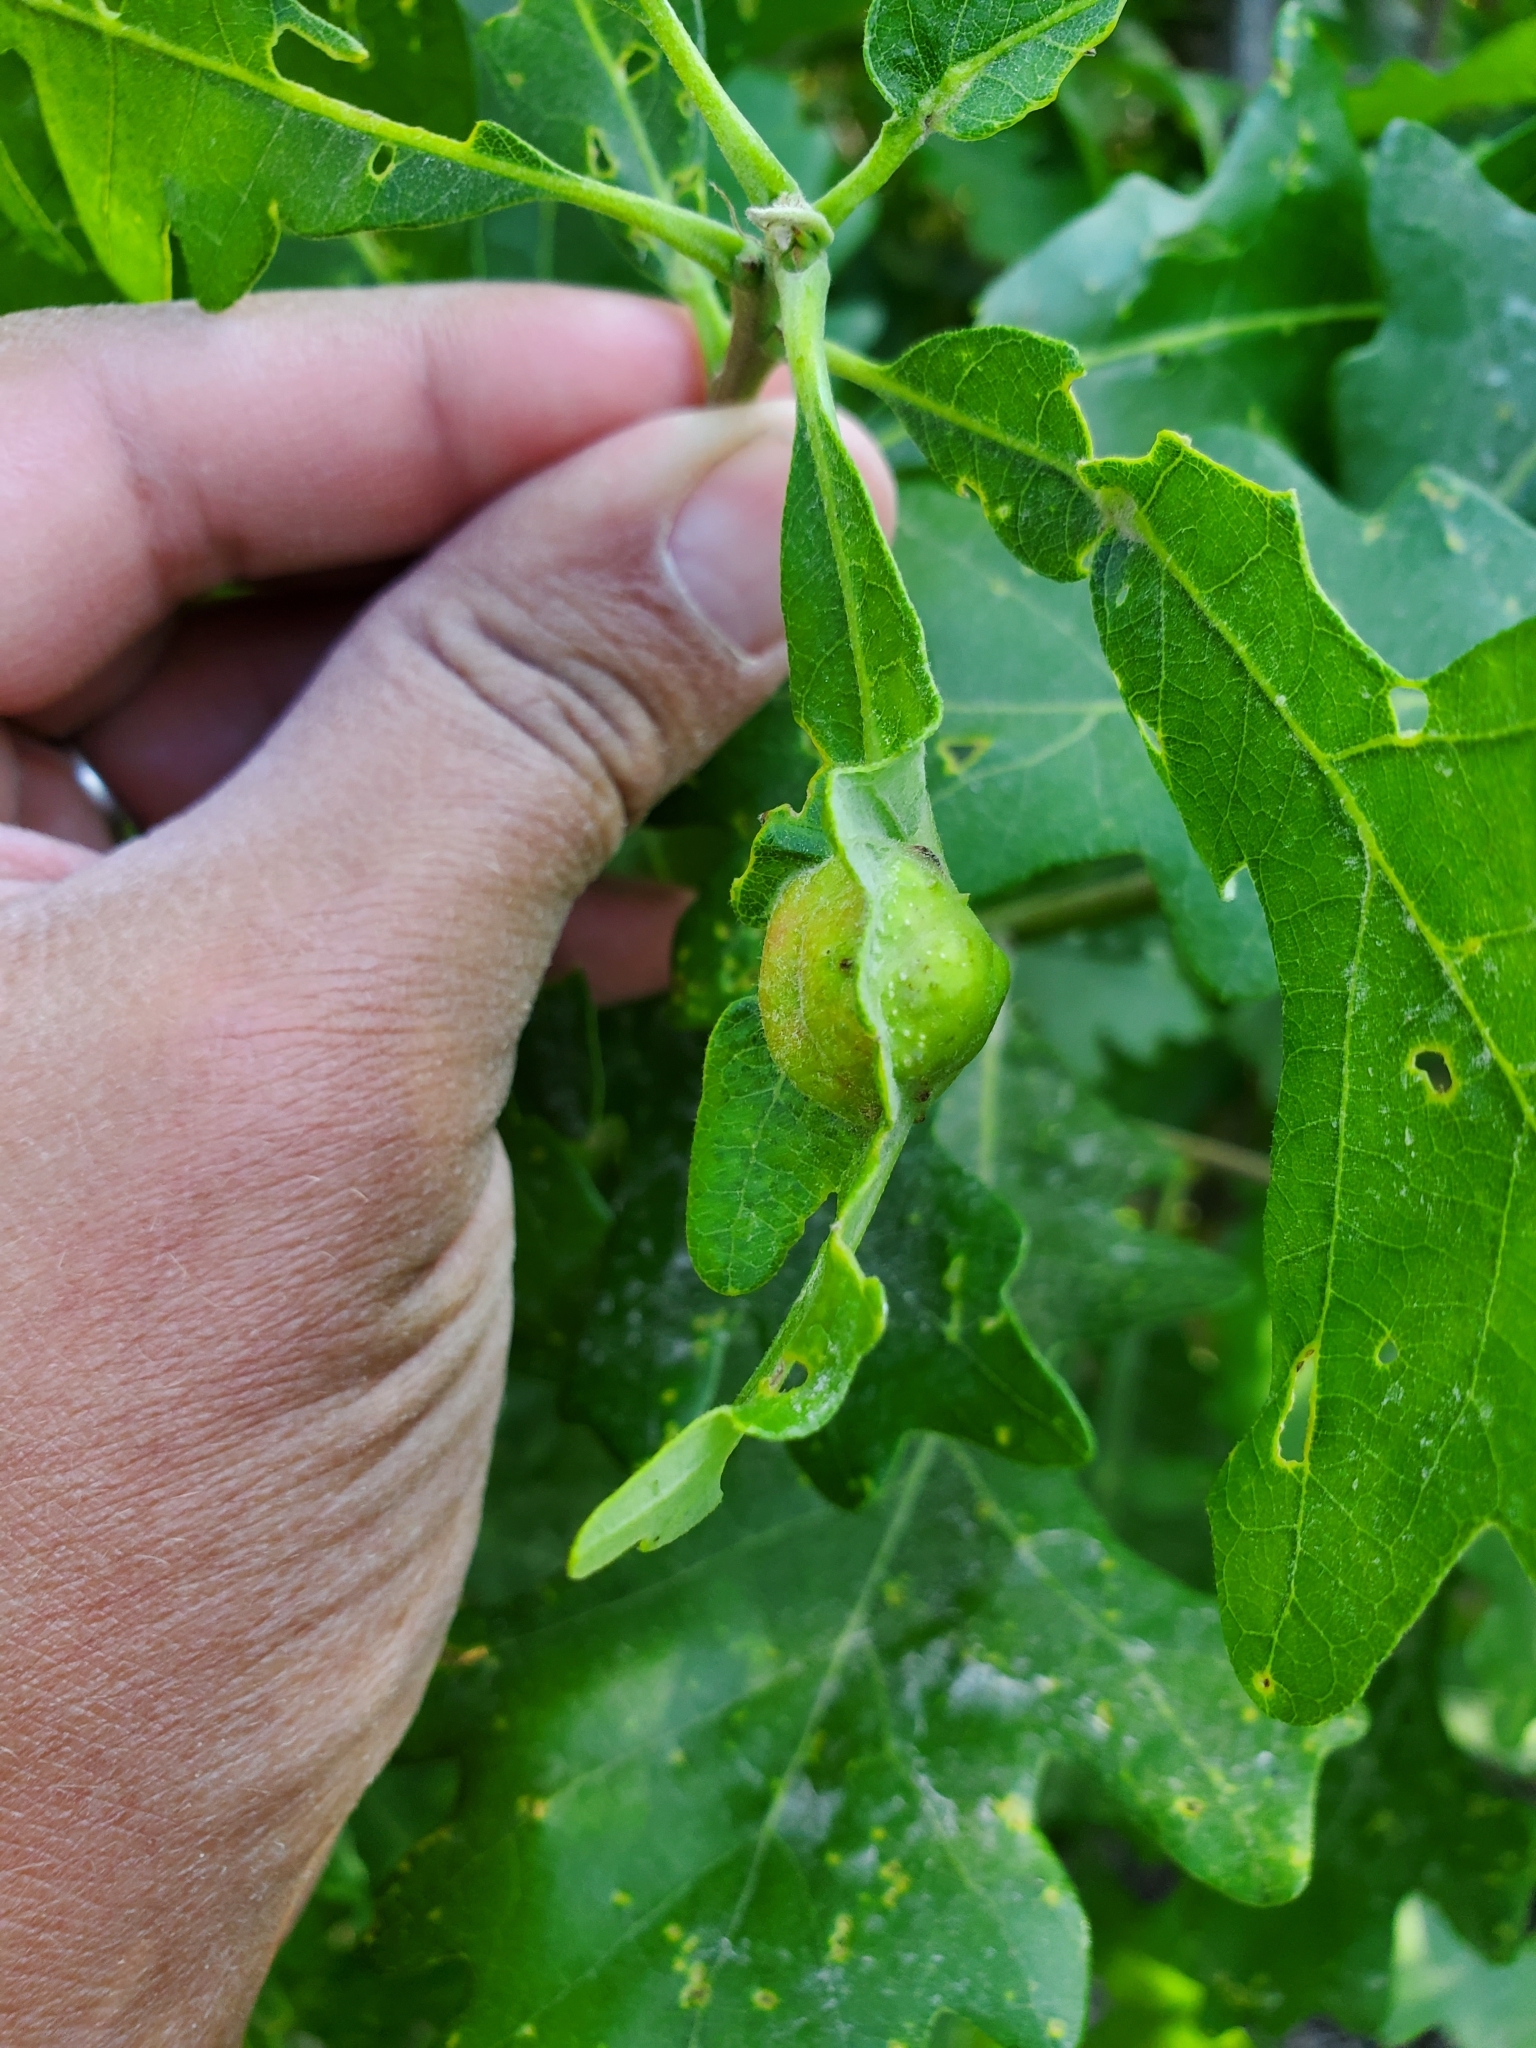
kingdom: Animalia
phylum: Arthropoda
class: Insecta
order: Hymenoptera
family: Cynipidae
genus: Andricus
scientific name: Andricus
